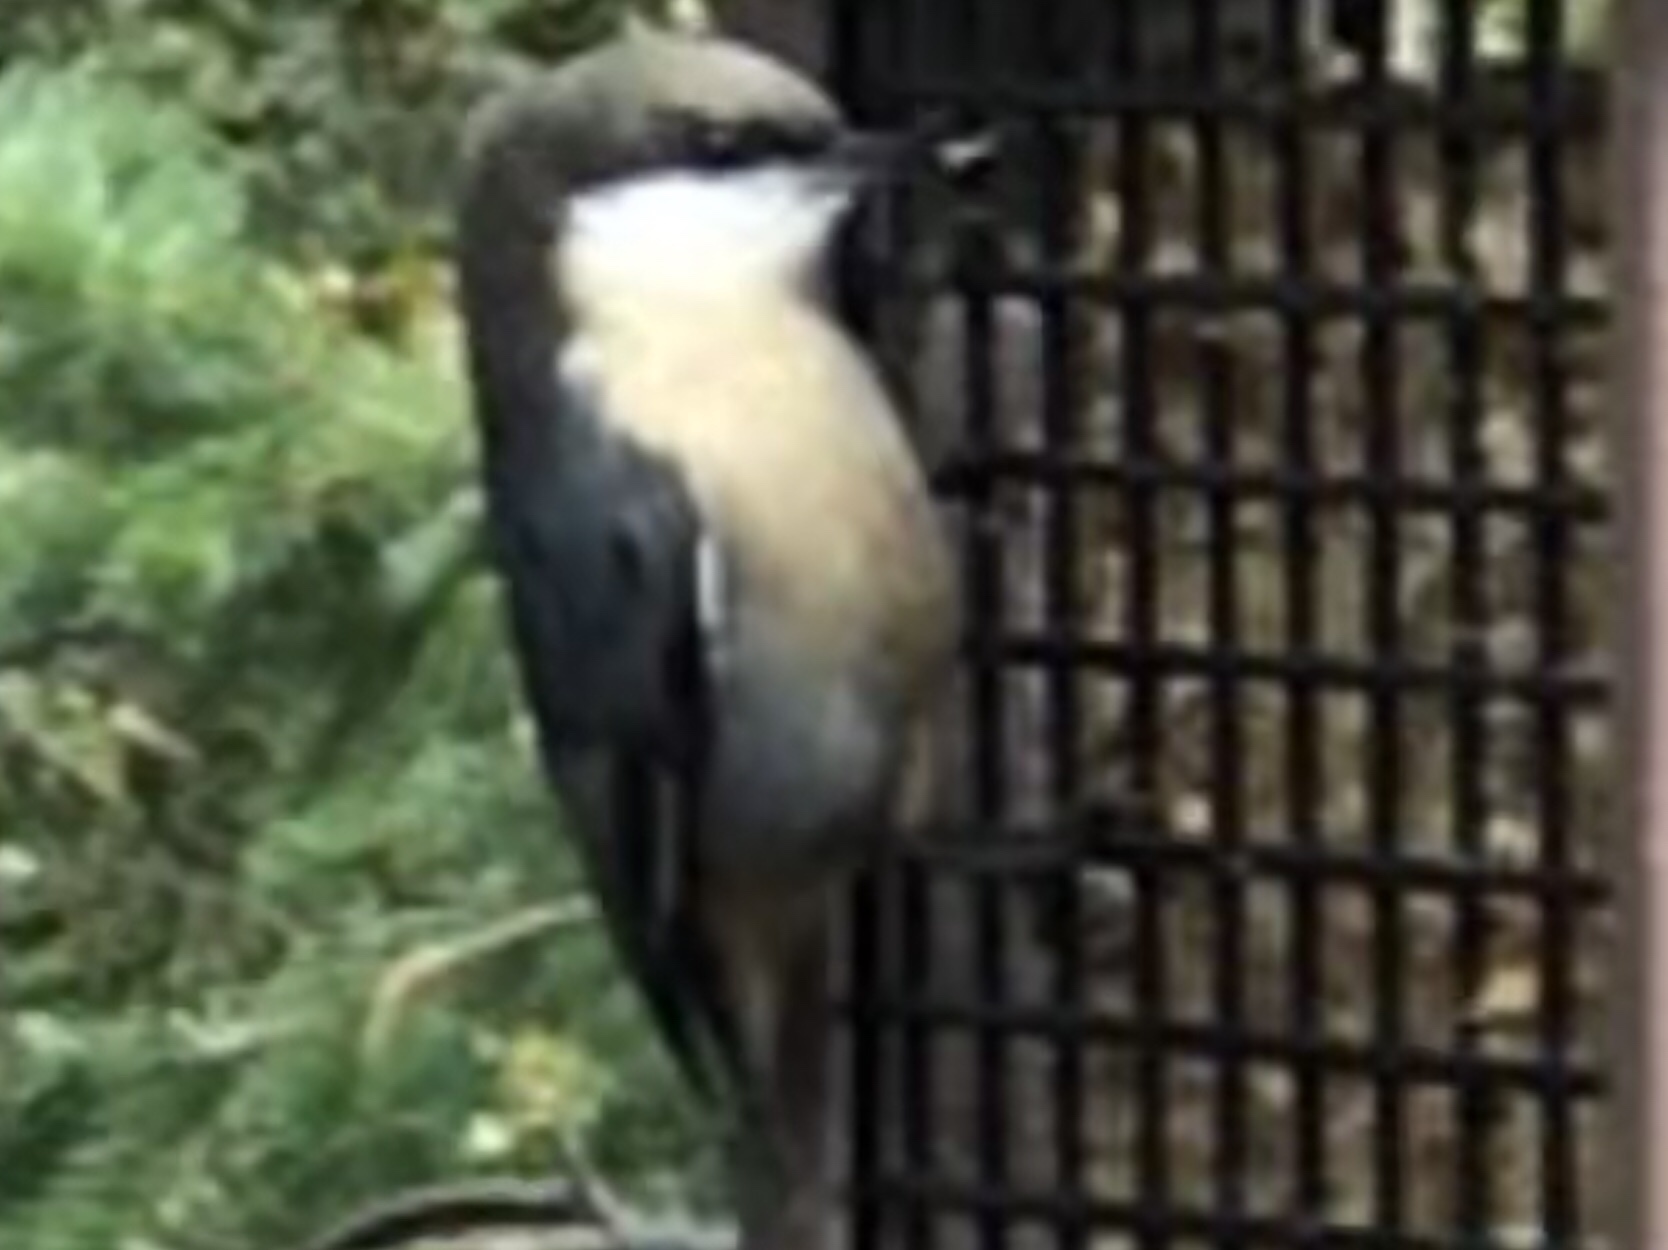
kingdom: Animalia
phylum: Chordata
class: Aves
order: Passeriformes
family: Sittidae
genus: Sitta
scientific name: Sitta pygmaea
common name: Pygmy nuthatch
